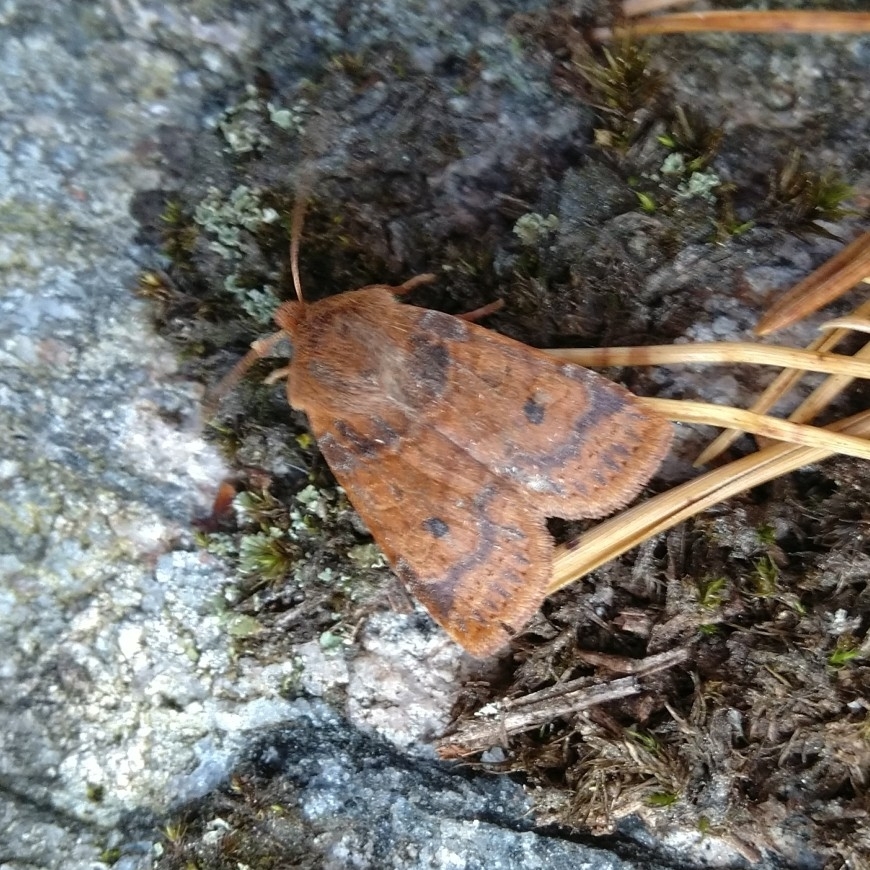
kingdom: Animalia
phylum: Arthropoda
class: Insecta
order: Lepidoptera
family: Noctuidae
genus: Conistra
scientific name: Conistra vaccinii
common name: Chestnut
